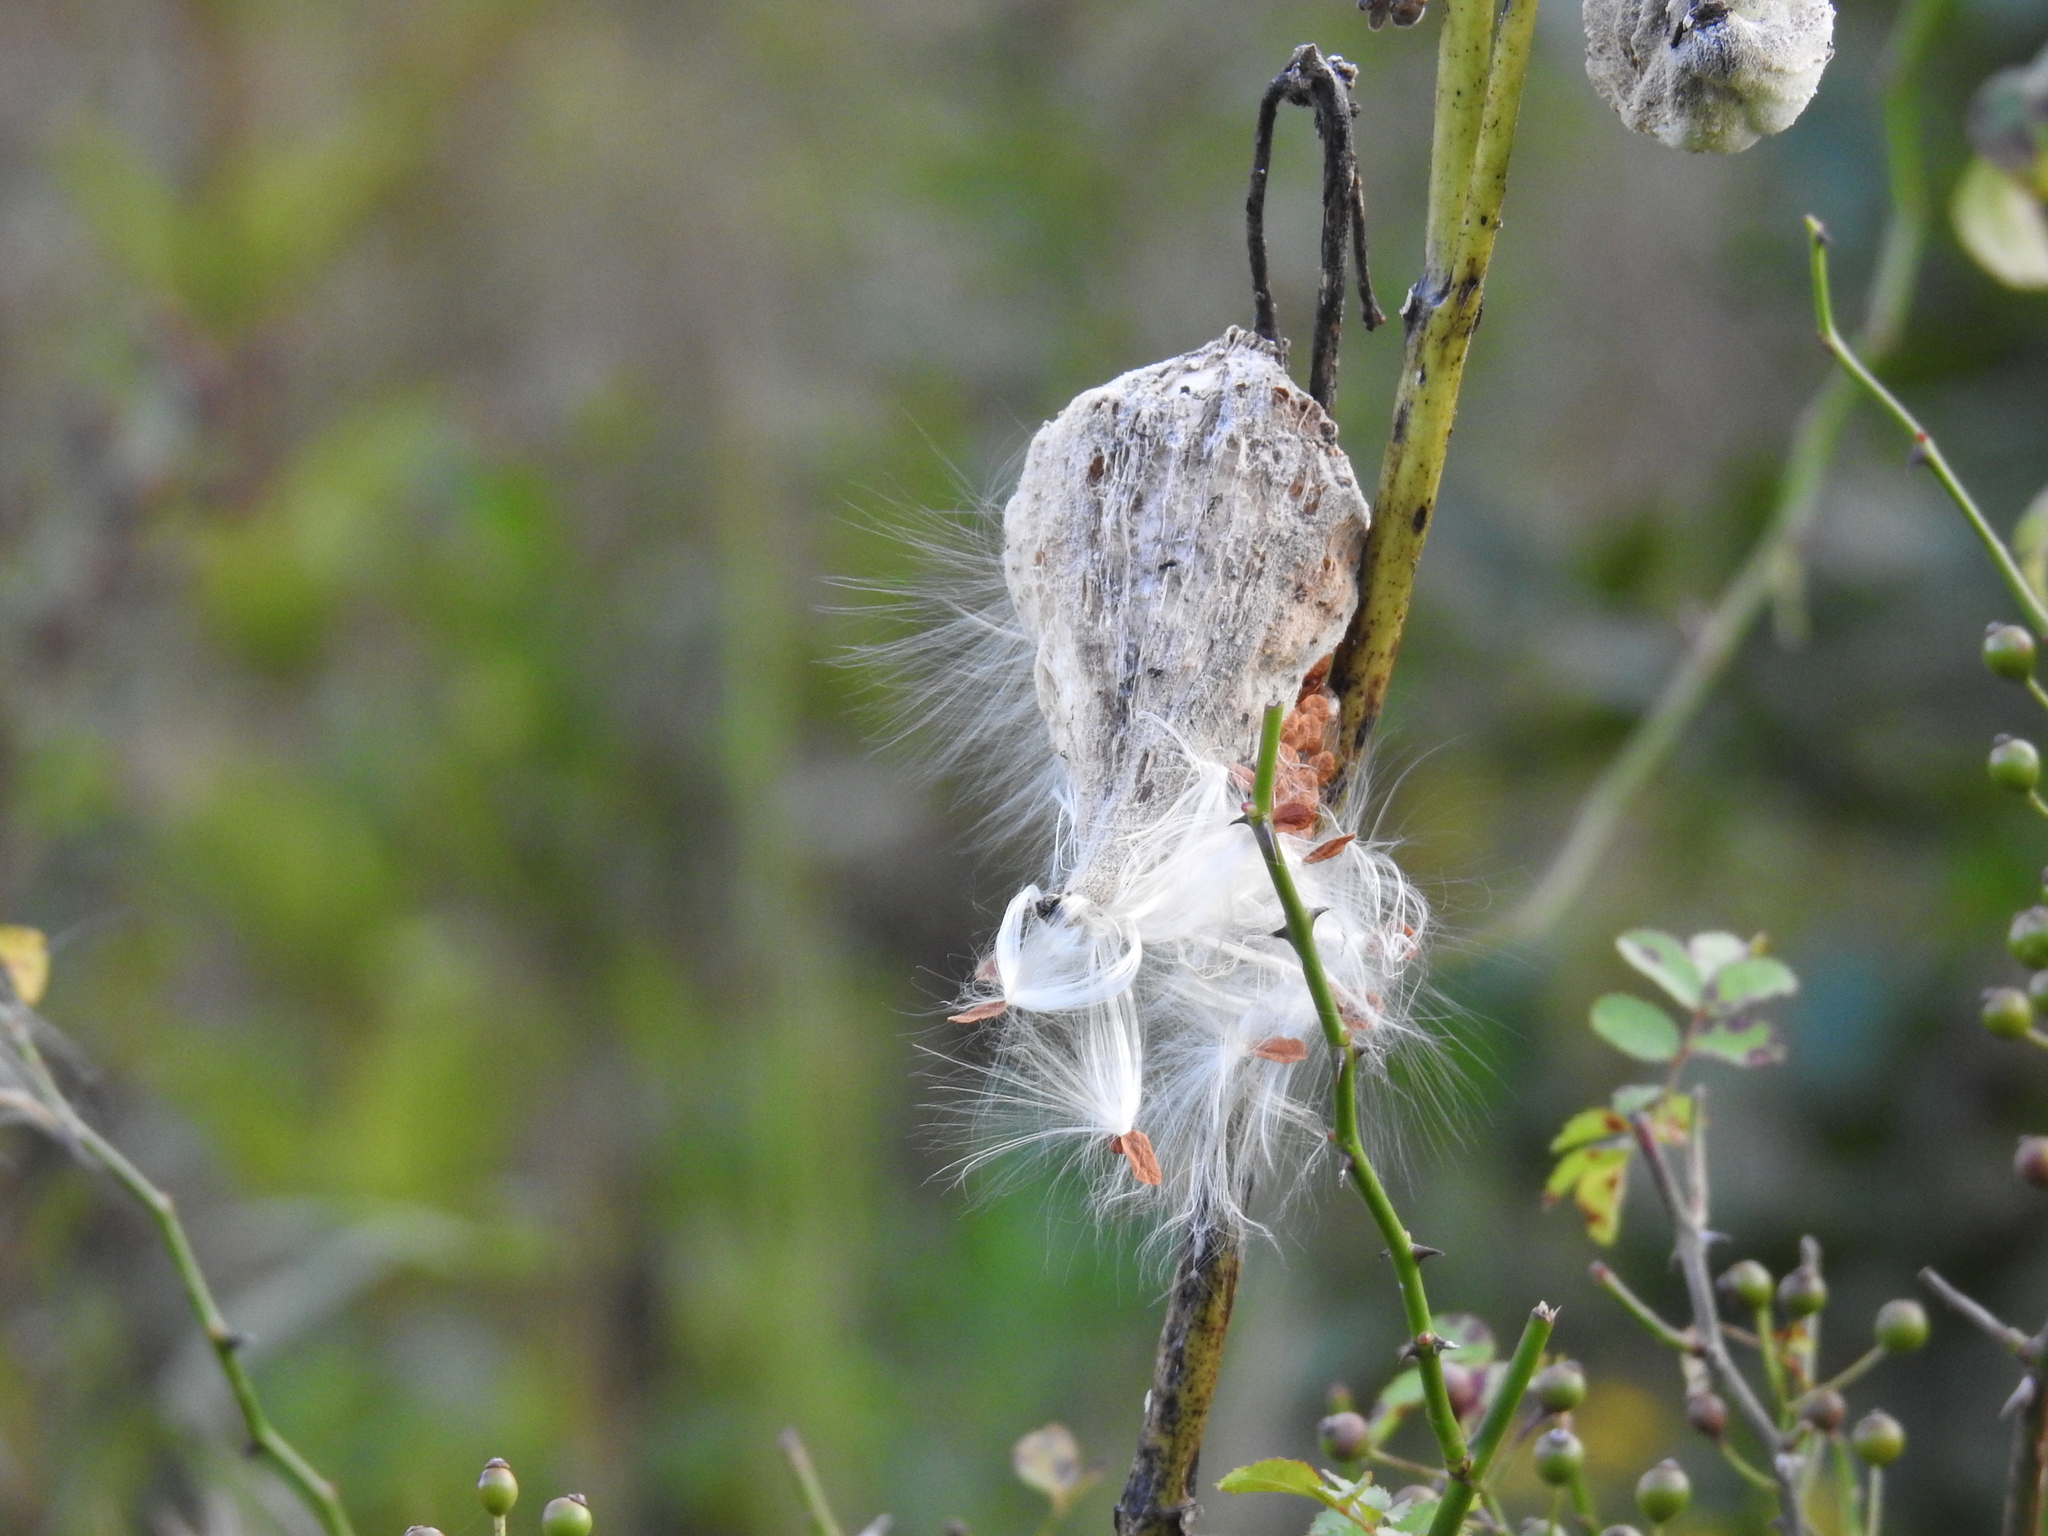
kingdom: Plantae
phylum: Tracheophyta
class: Magnoliopsida
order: Gentianales
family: Apocynaceae
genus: Asclepias
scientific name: Asclepias syriaca
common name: Common milkweed
